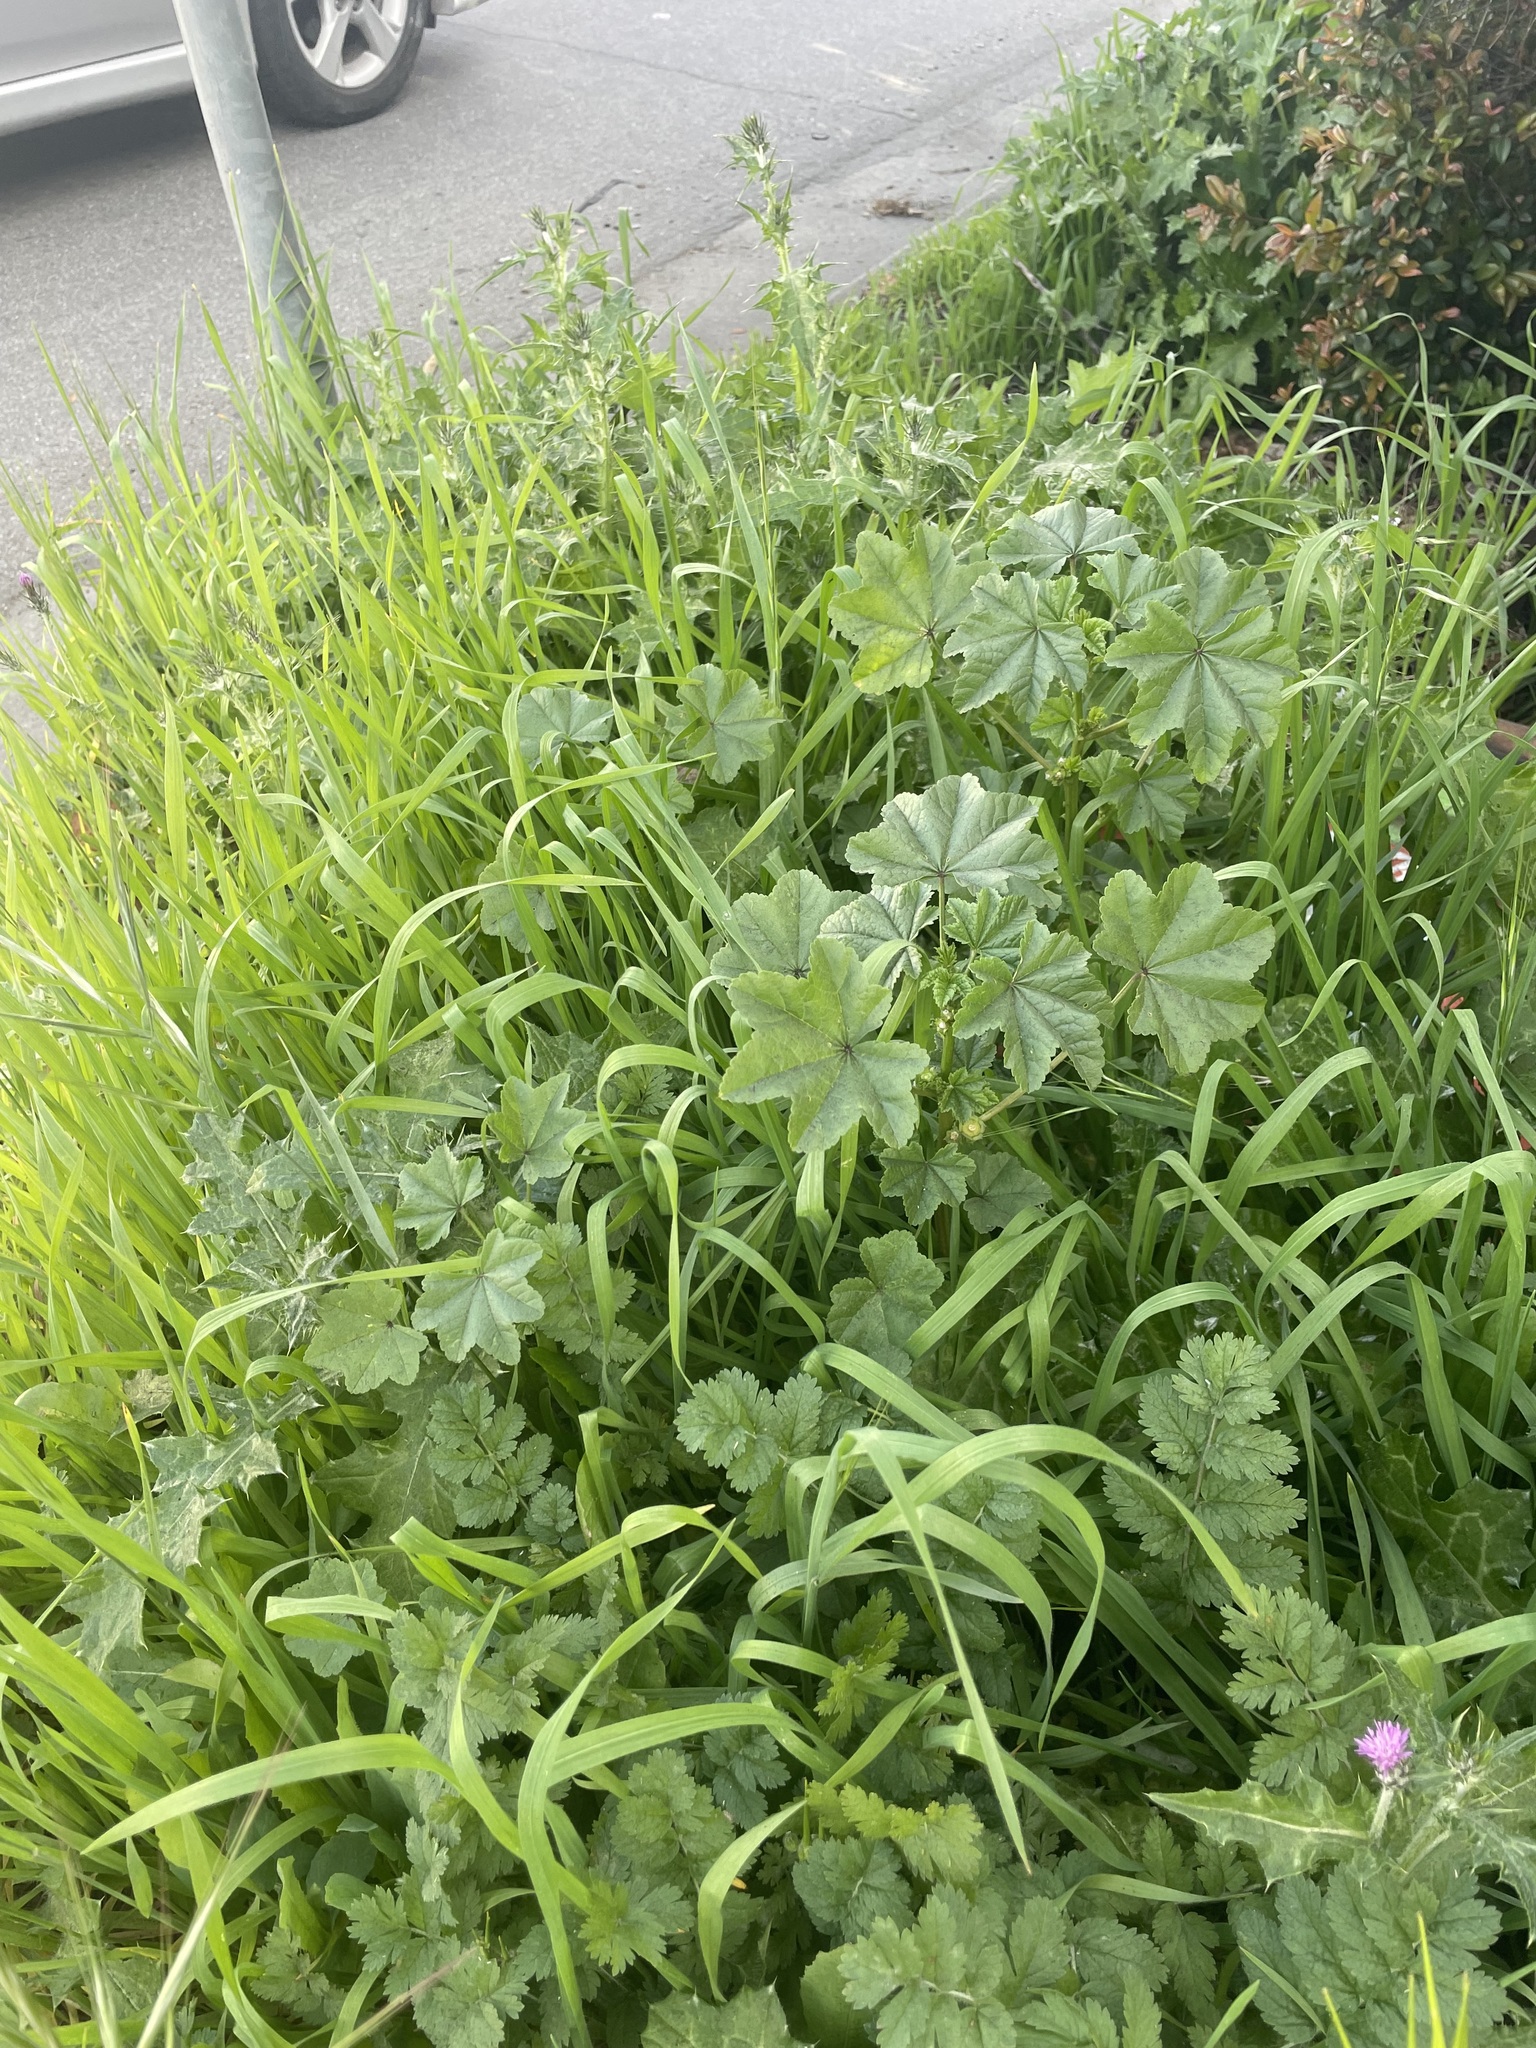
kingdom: Plantae
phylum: Tracheophyta
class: Magnoliopsida
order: Malvales
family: Malvaceae
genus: Malva
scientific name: Malva
